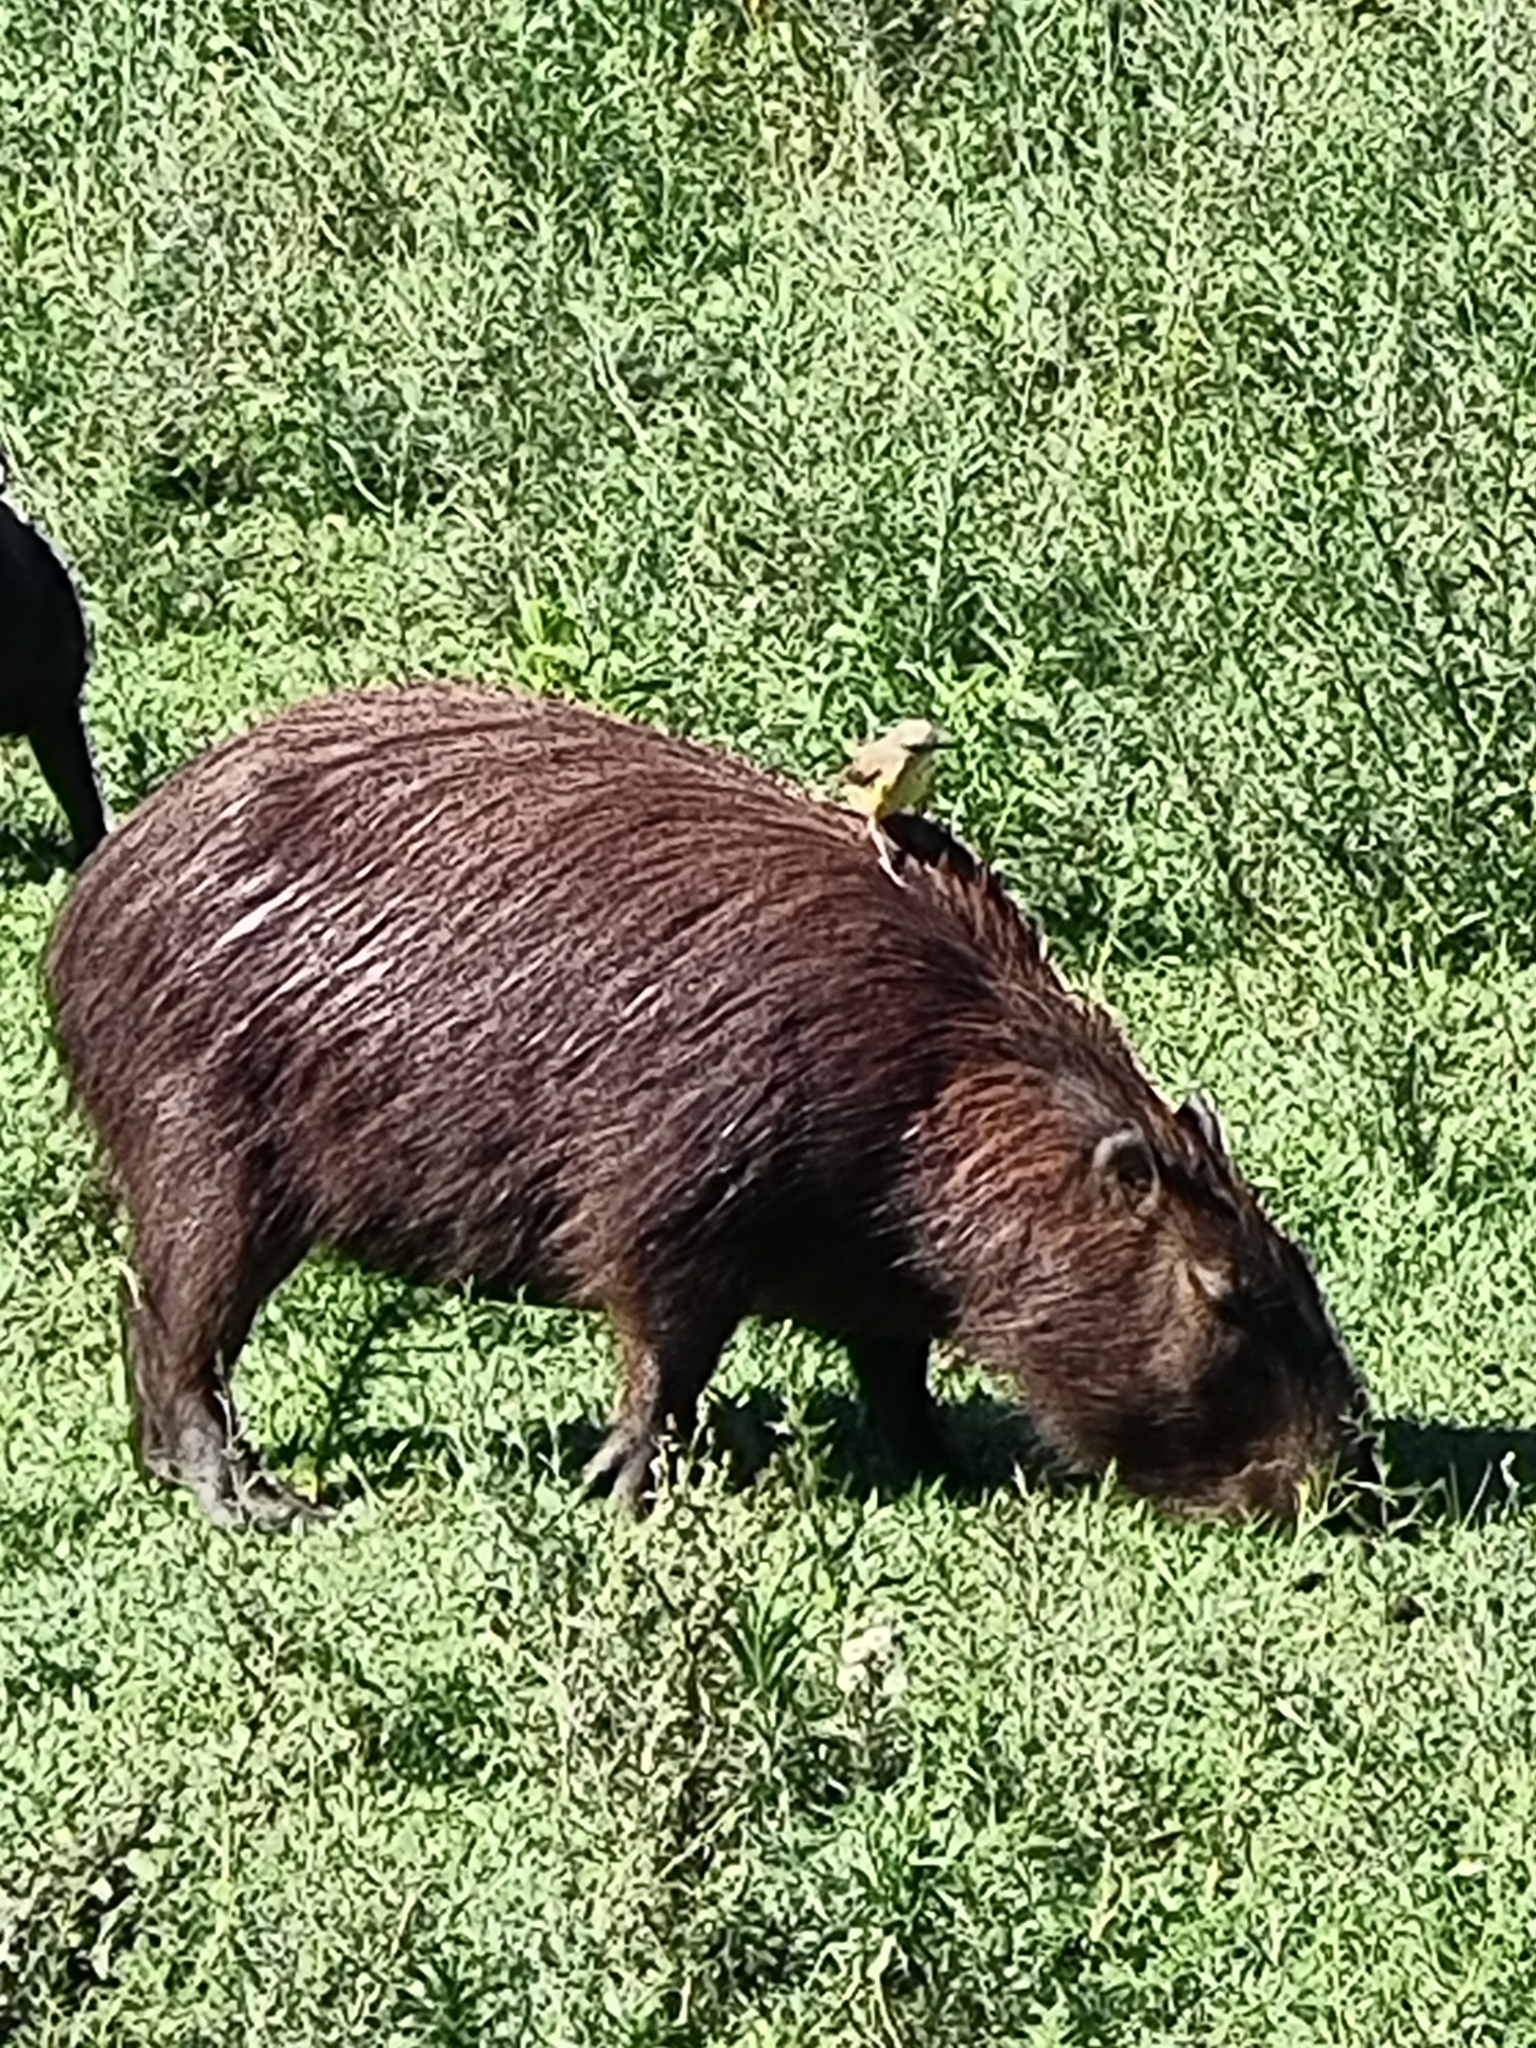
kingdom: Animalia
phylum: Chordata
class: Mammalia
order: Rodentia
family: Caviidae
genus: Hydrochoerus
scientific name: Hydrochoerus hydrochaeris
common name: Capybara
